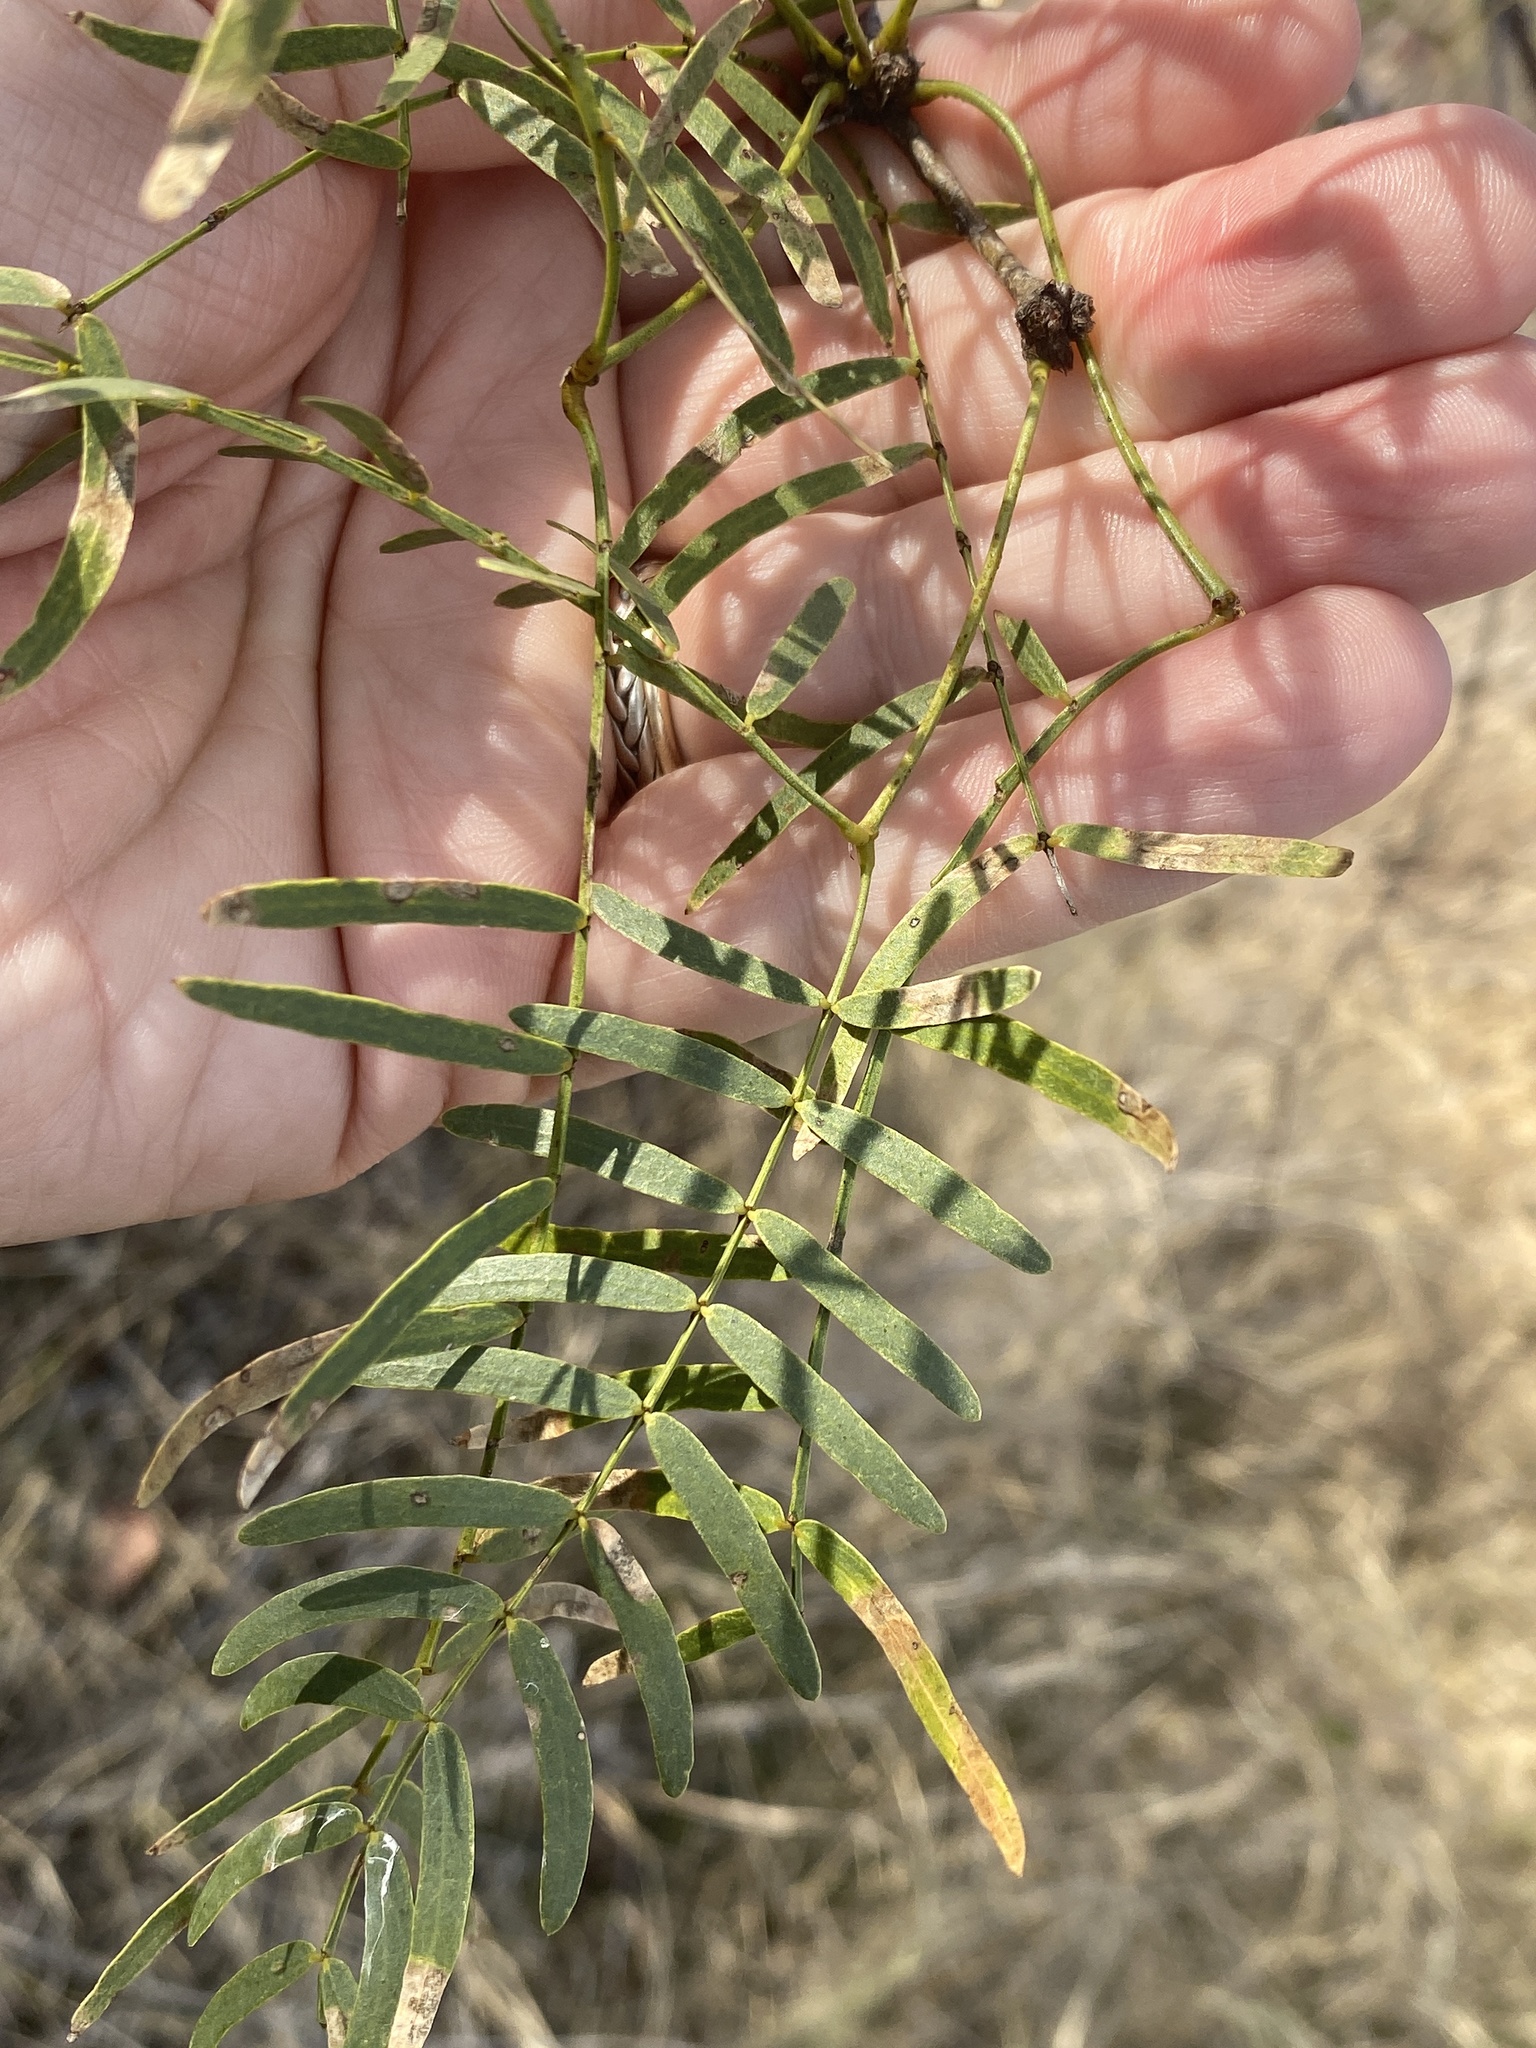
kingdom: Plantae
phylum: Tracheophyta
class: Magnoliopsida
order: Fabales
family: Fabaceae
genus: Prosopis
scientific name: Prosopis glandulosa
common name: Honey mesquite
